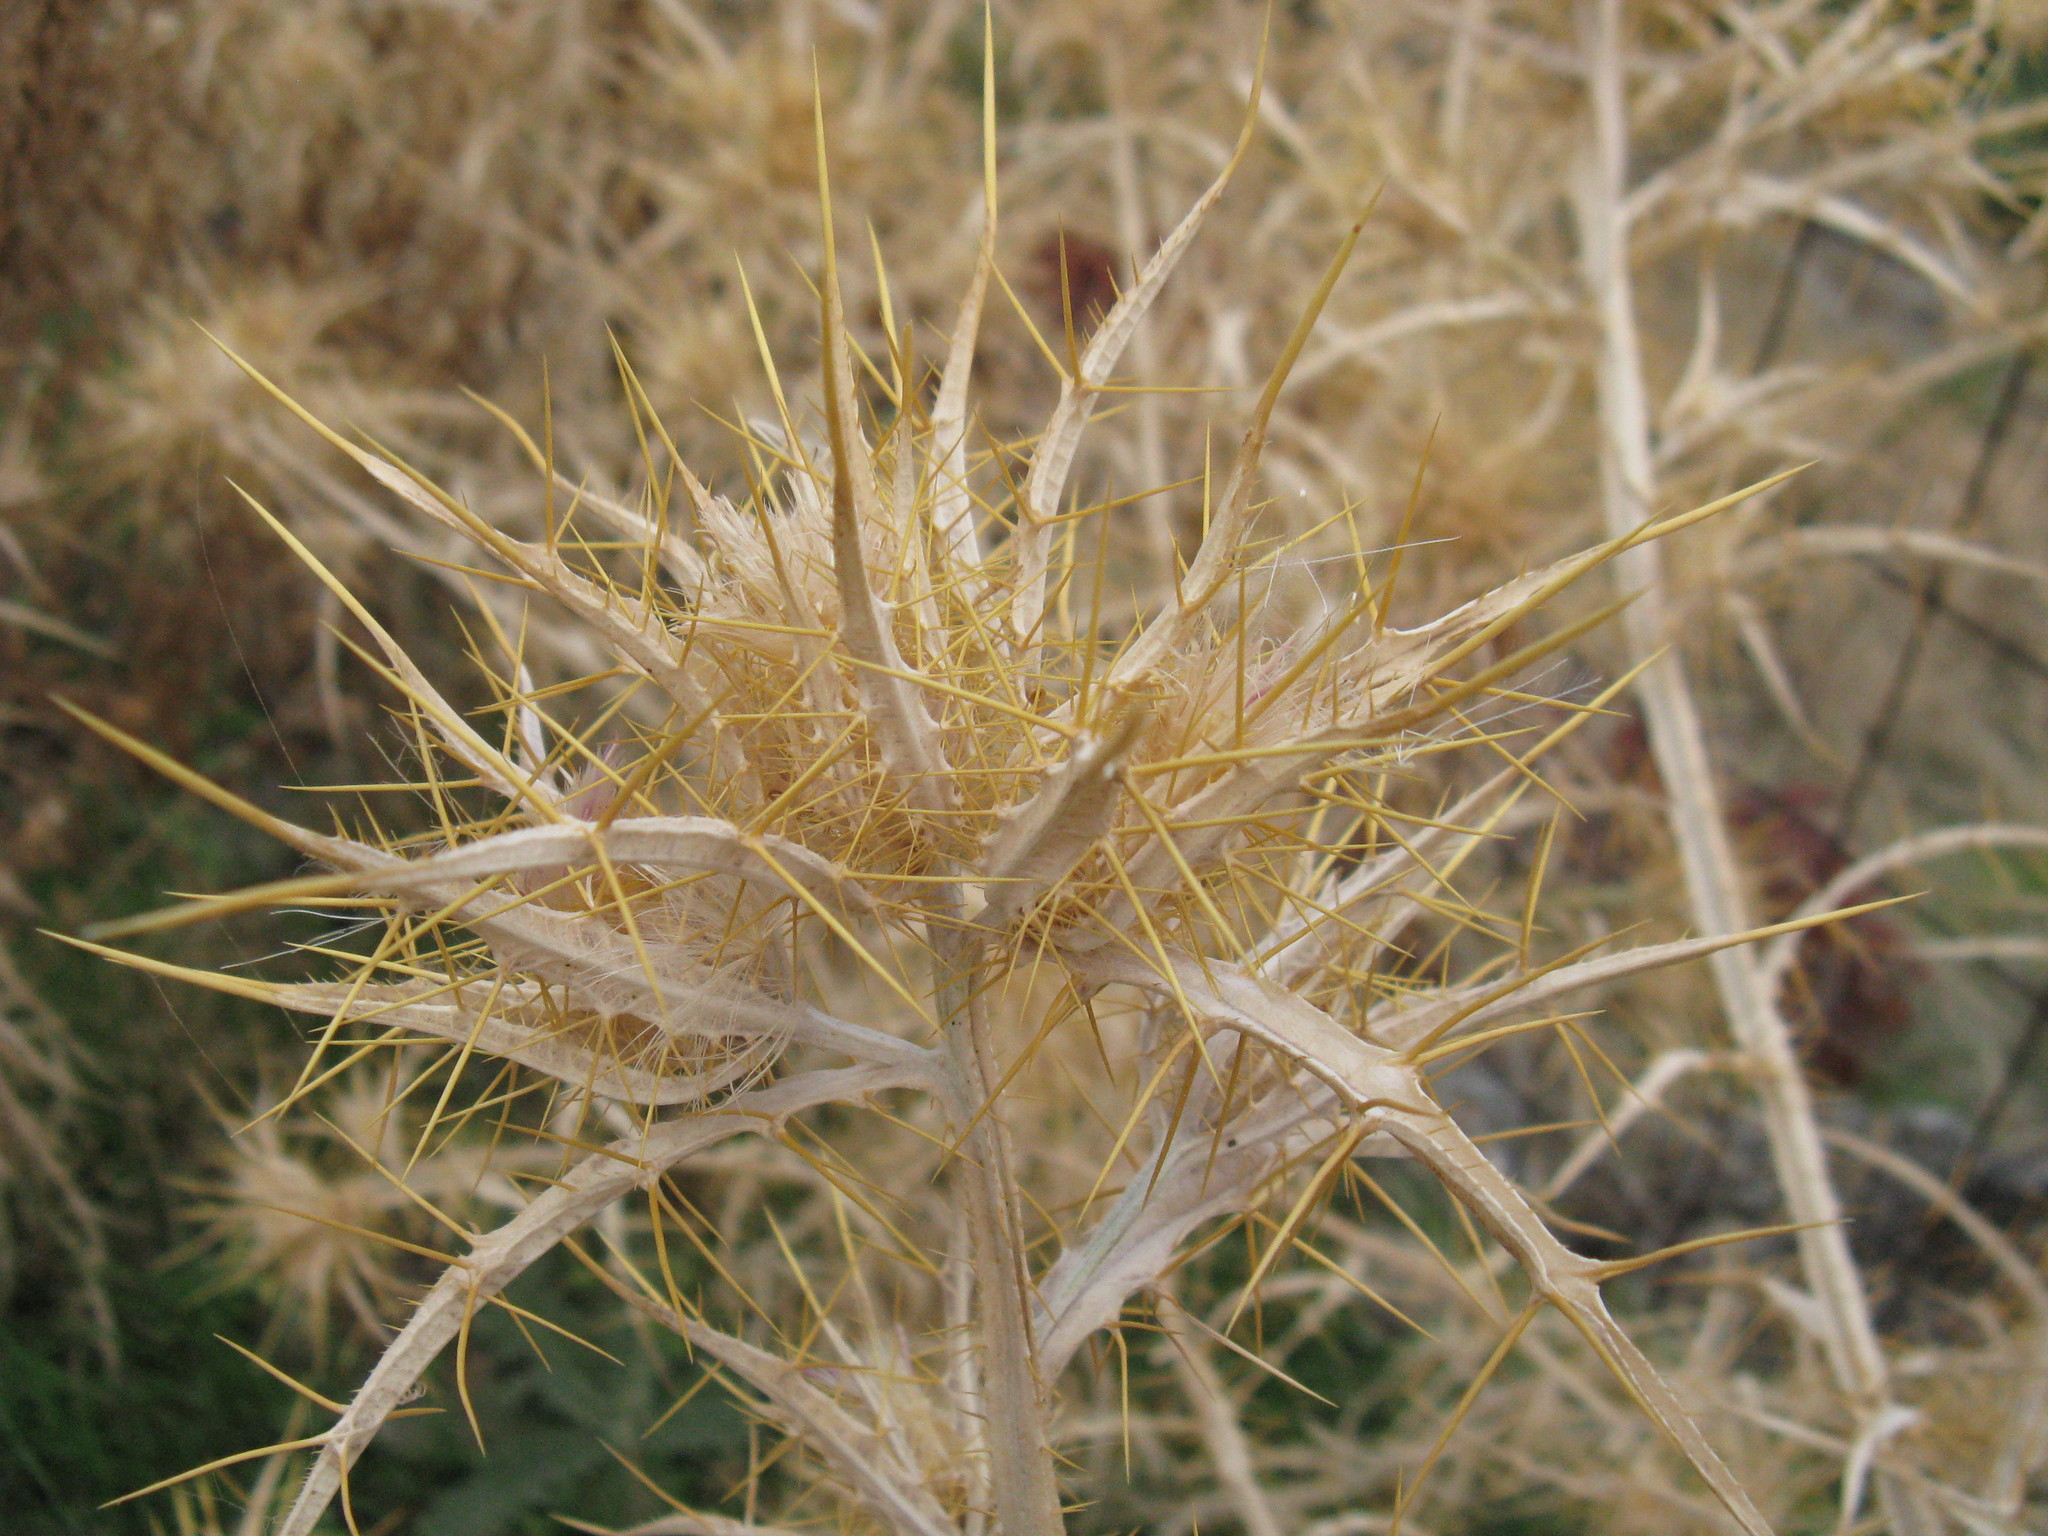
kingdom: Plantae
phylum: Tracheophyta
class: Magnoliopsida
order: Asterales
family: Asteraceae
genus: Picnomon
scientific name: Picnomon acarna
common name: Soldier thistle
